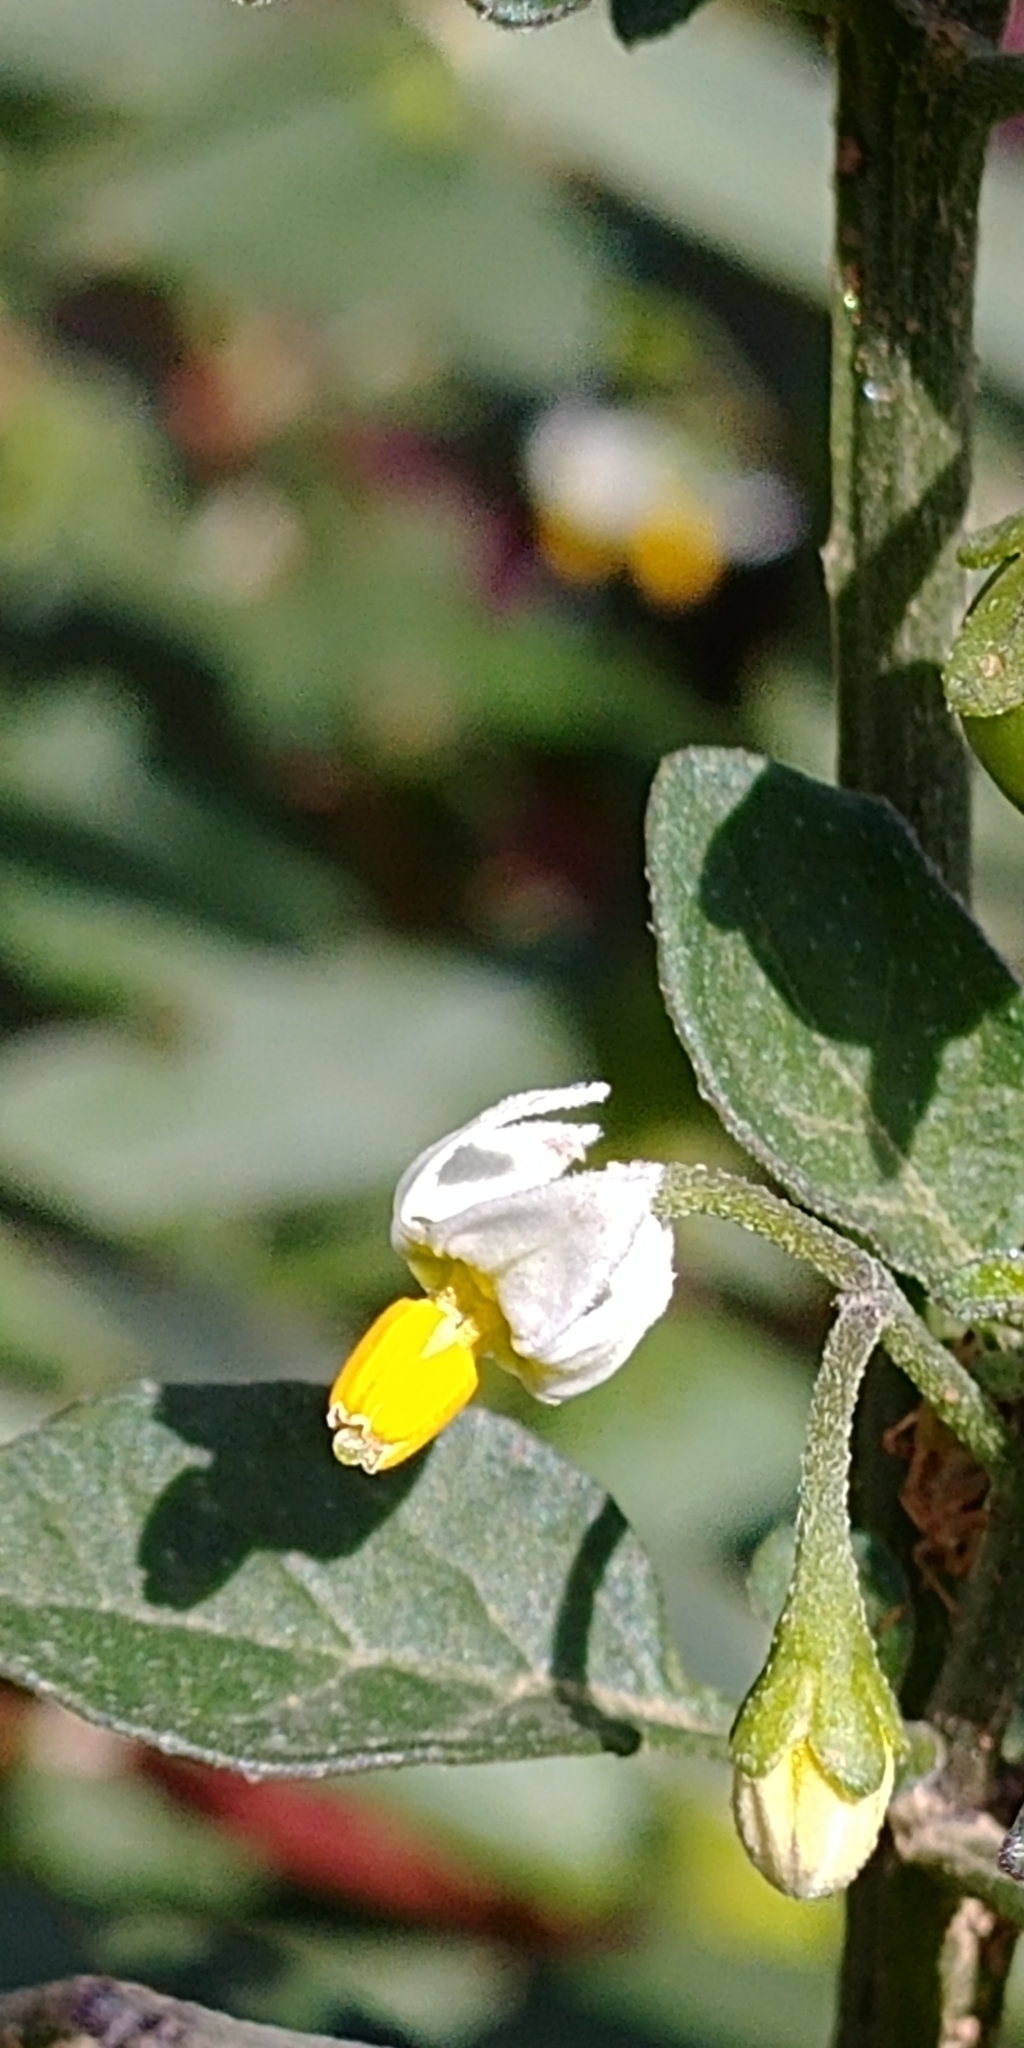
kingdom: Plantae
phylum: Tracheophyta
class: Magnoliopsida
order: Solanales
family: Solanaceae
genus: Solanum
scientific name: Solanum nigrum
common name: Black nightshade
